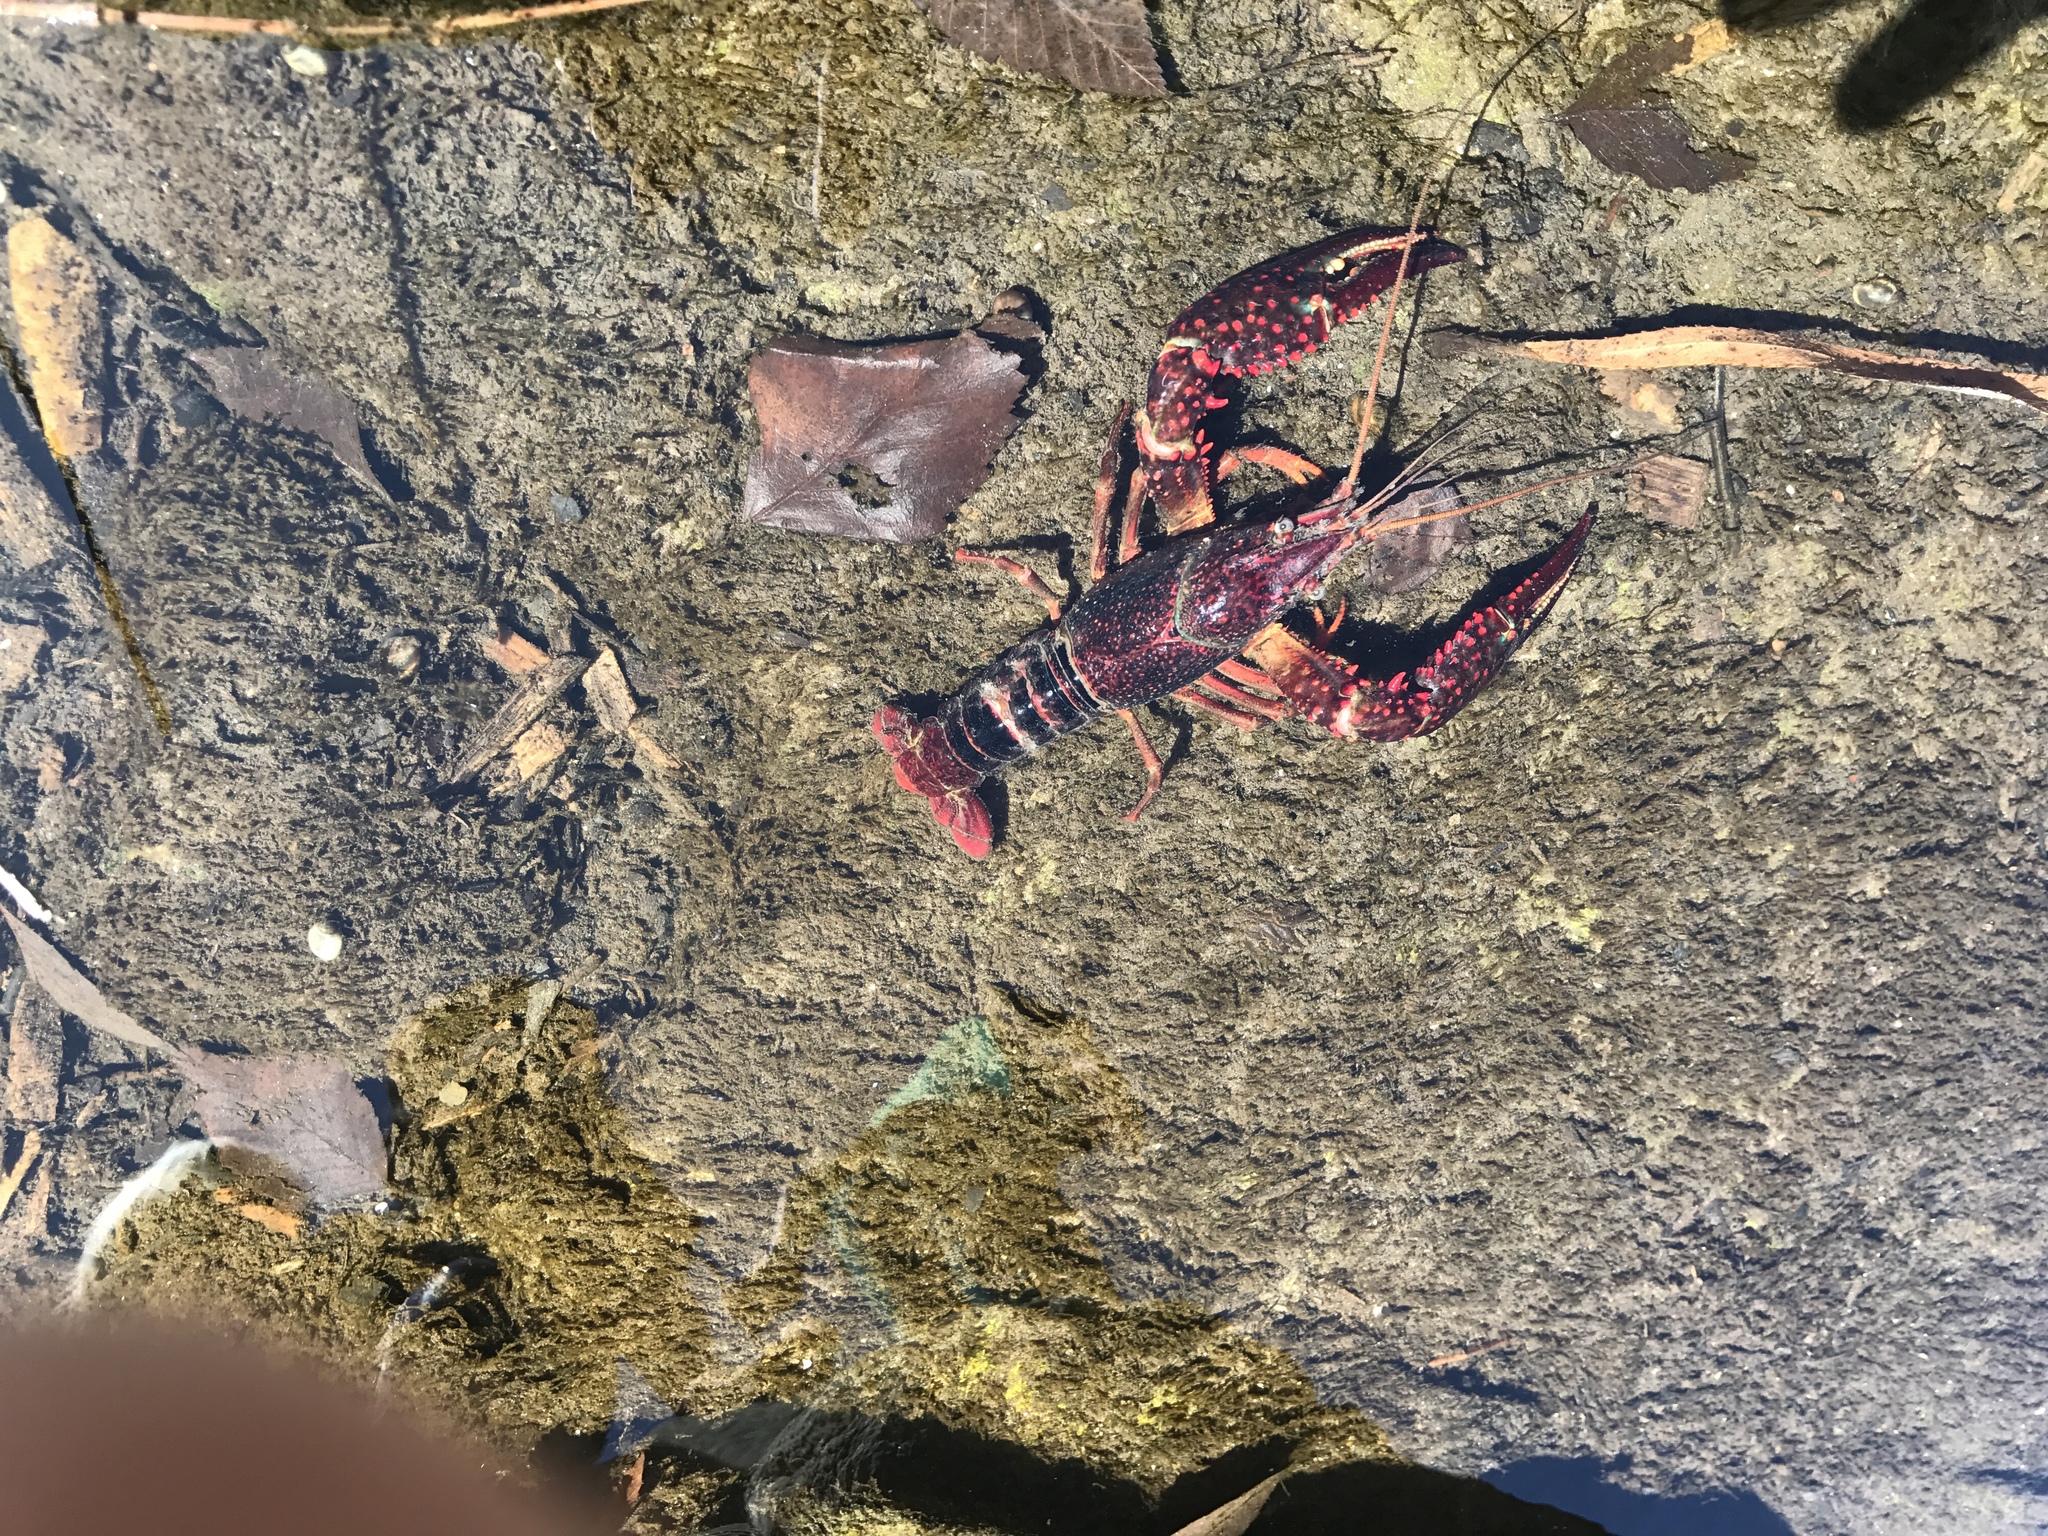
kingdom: Animalia
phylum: Arthropoda
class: Malacostraca
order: Decapoda
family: Cambaridae
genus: Procambarus
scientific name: Procambarus clarkii
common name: Red swamp crayfish
